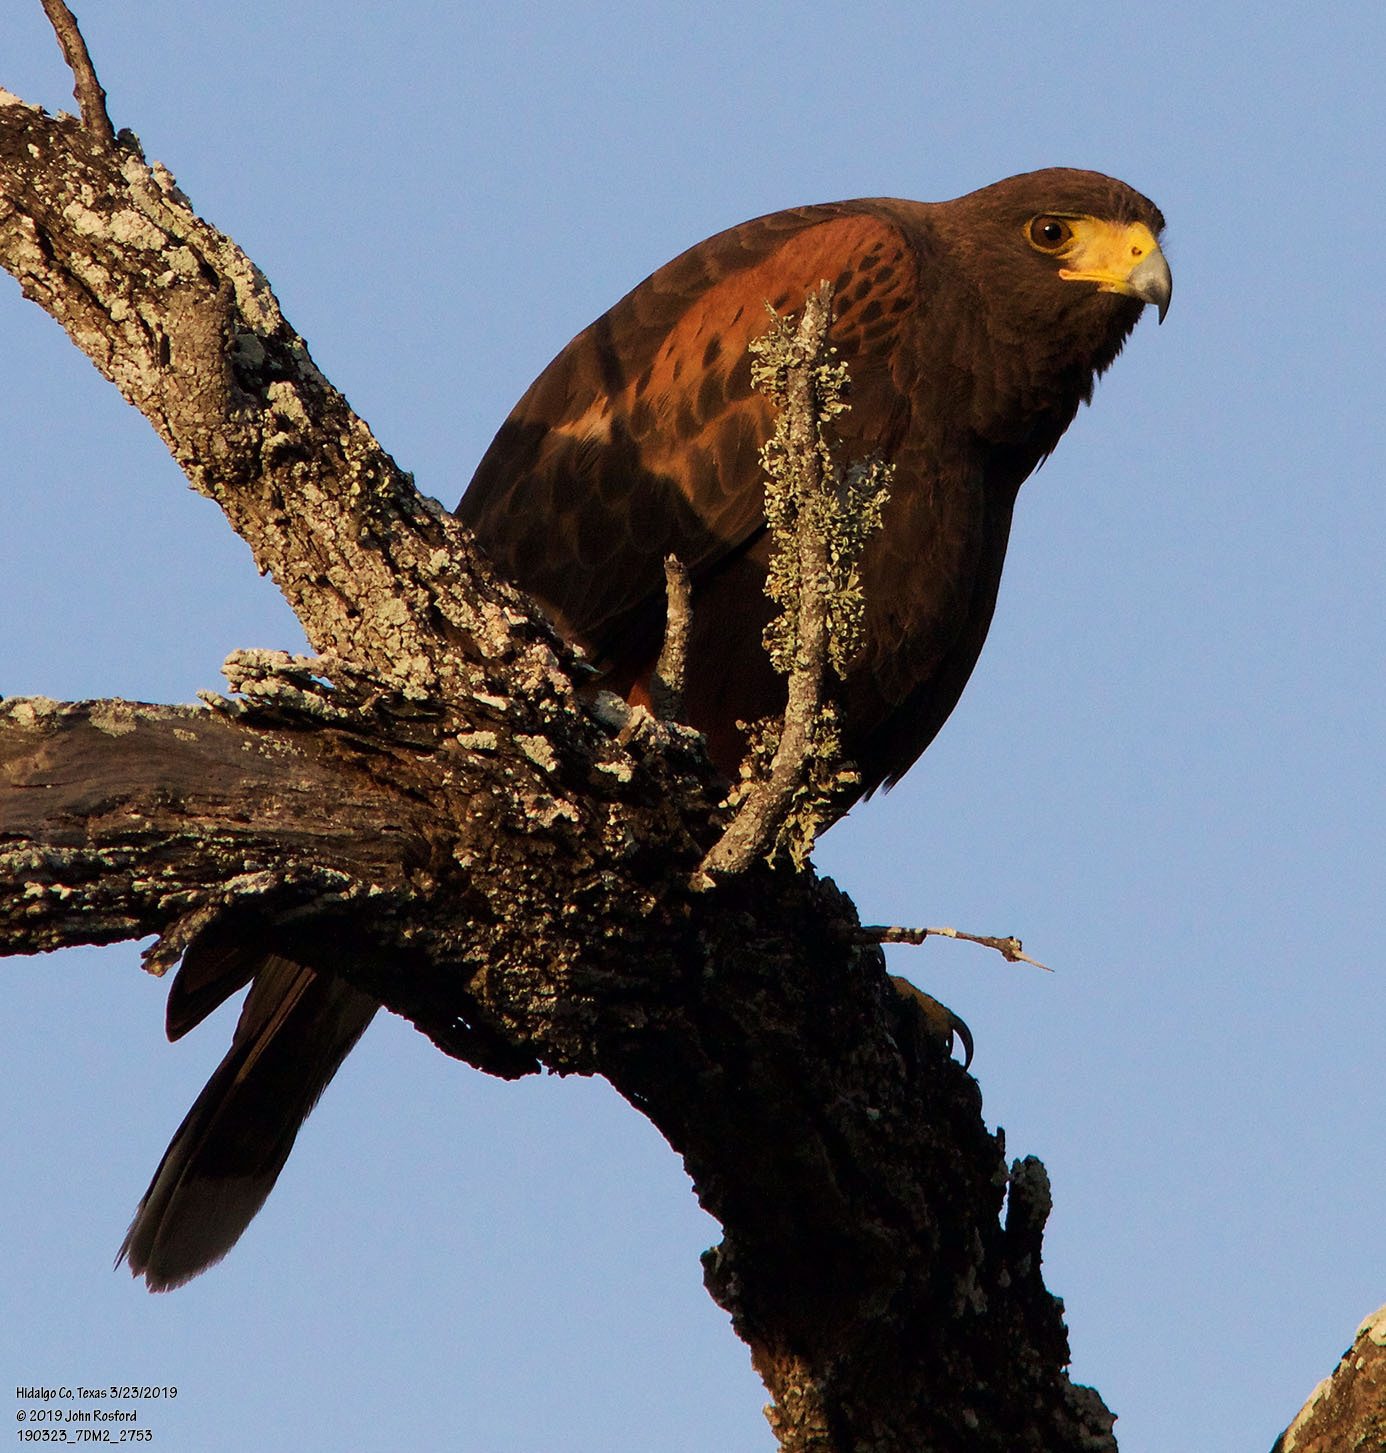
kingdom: Animalia
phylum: Chordata
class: Aves
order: Accipitriformes
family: Accipitridae
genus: Parabuteo
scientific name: Parabuteo unicinctus
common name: Harris's hawk
